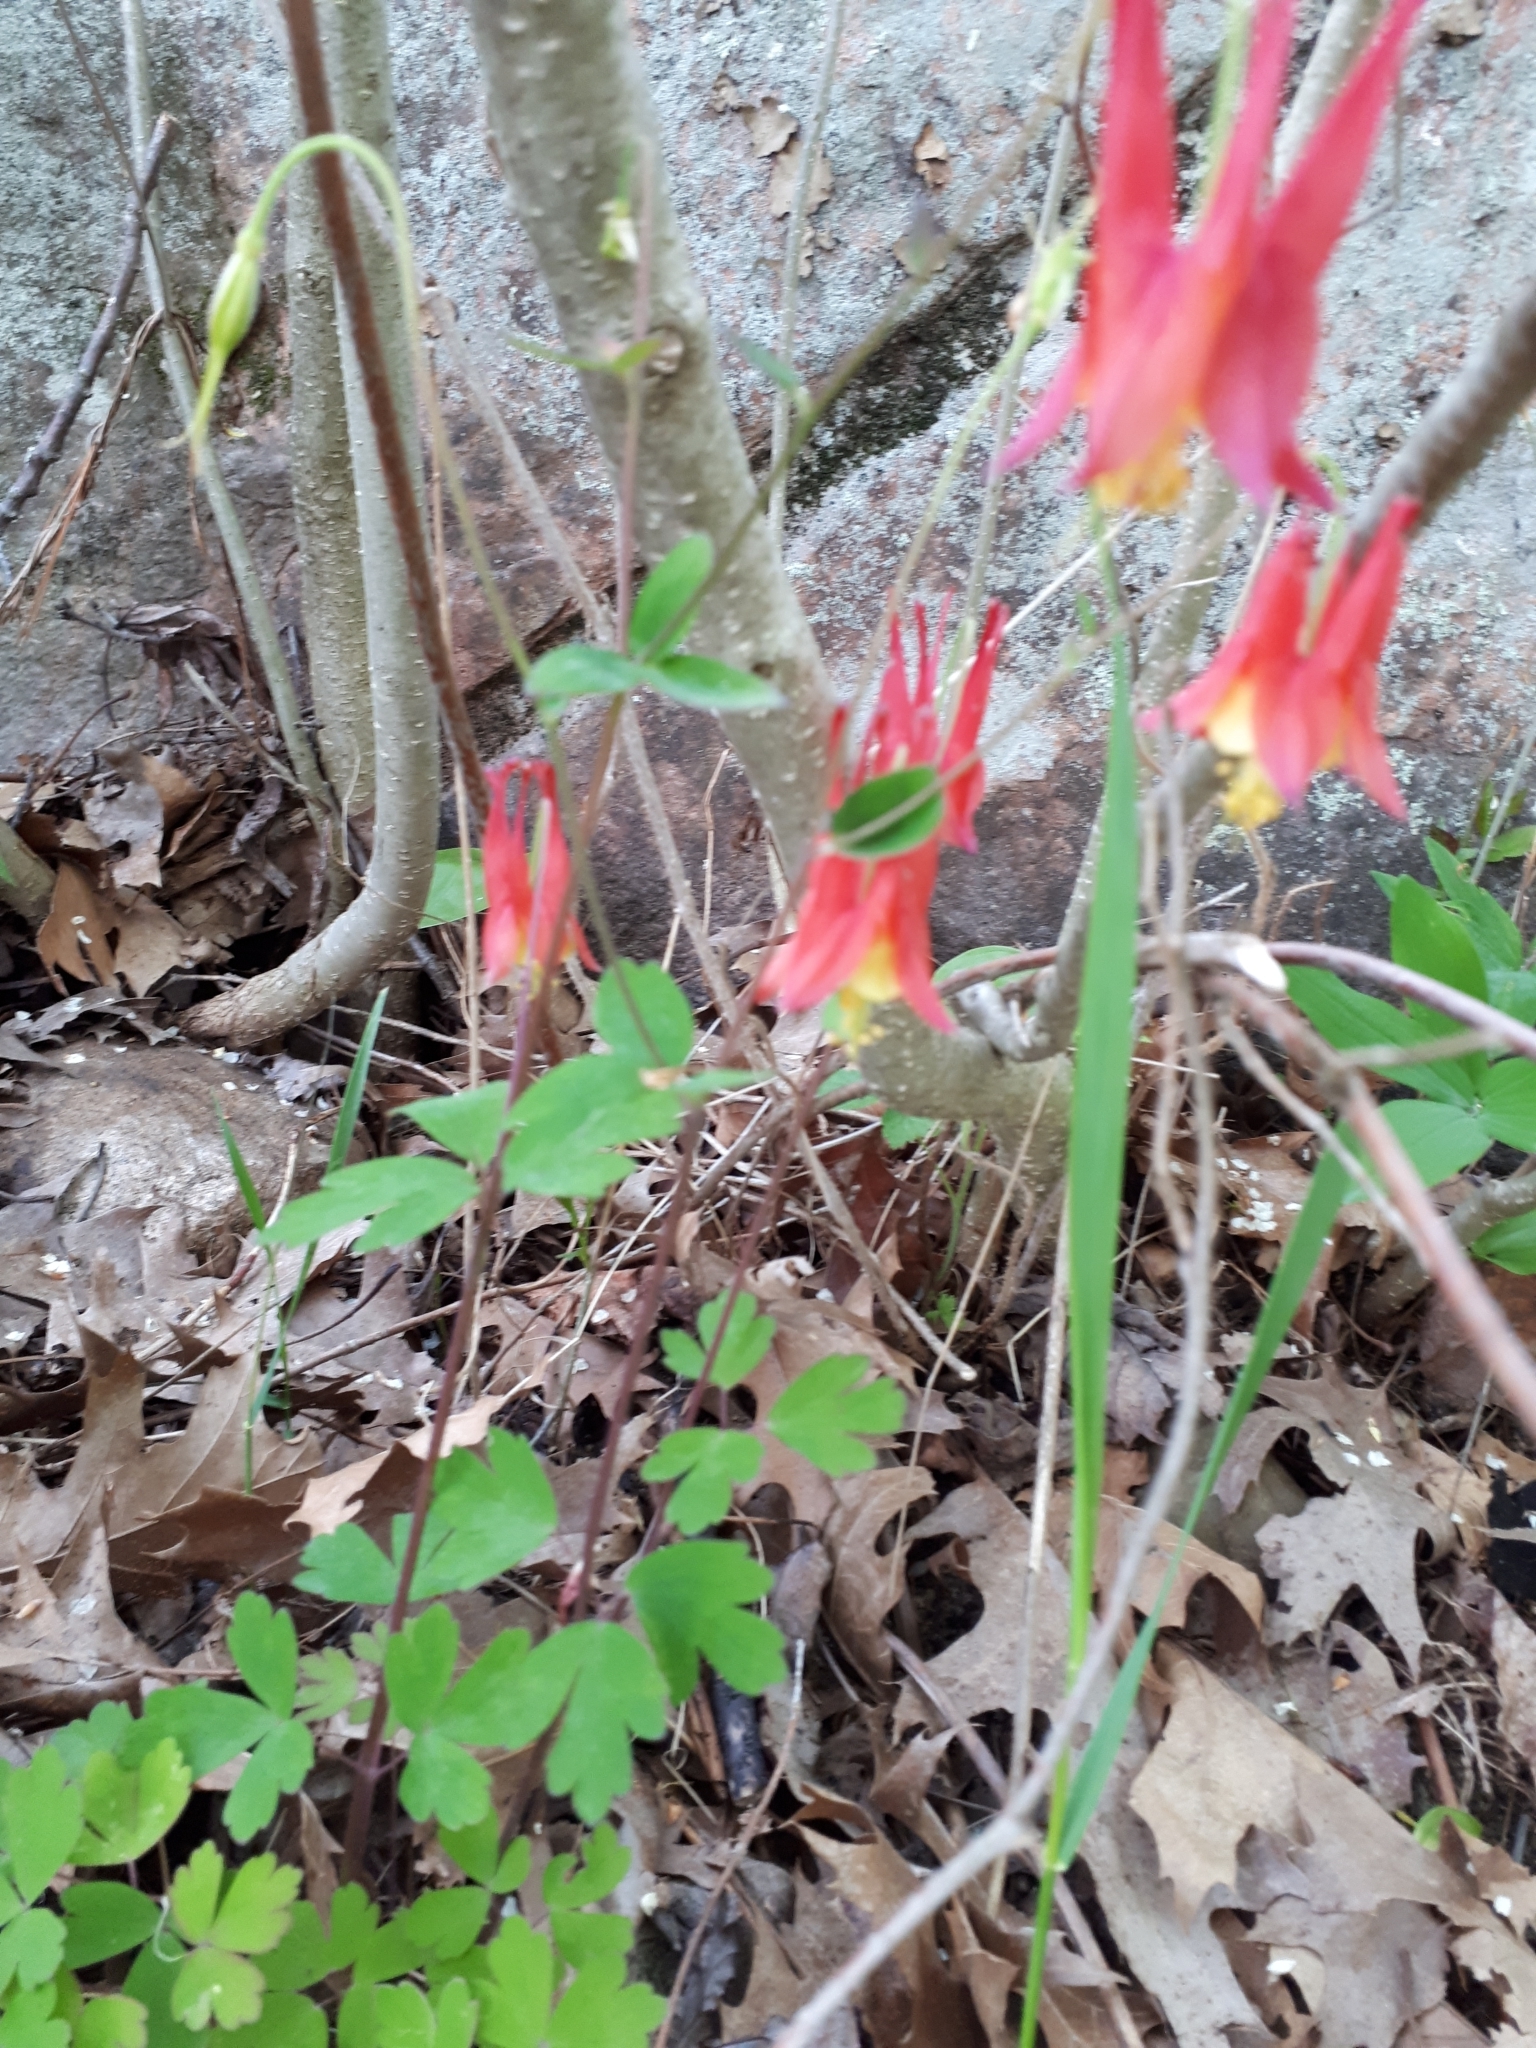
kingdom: Plantae
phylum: Tracheophyta
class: Magnoliopsida
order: Ranunculales
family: Ranunculaceae
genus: Aquilegia
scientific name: Aquilegia canadensis
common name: American columbine
